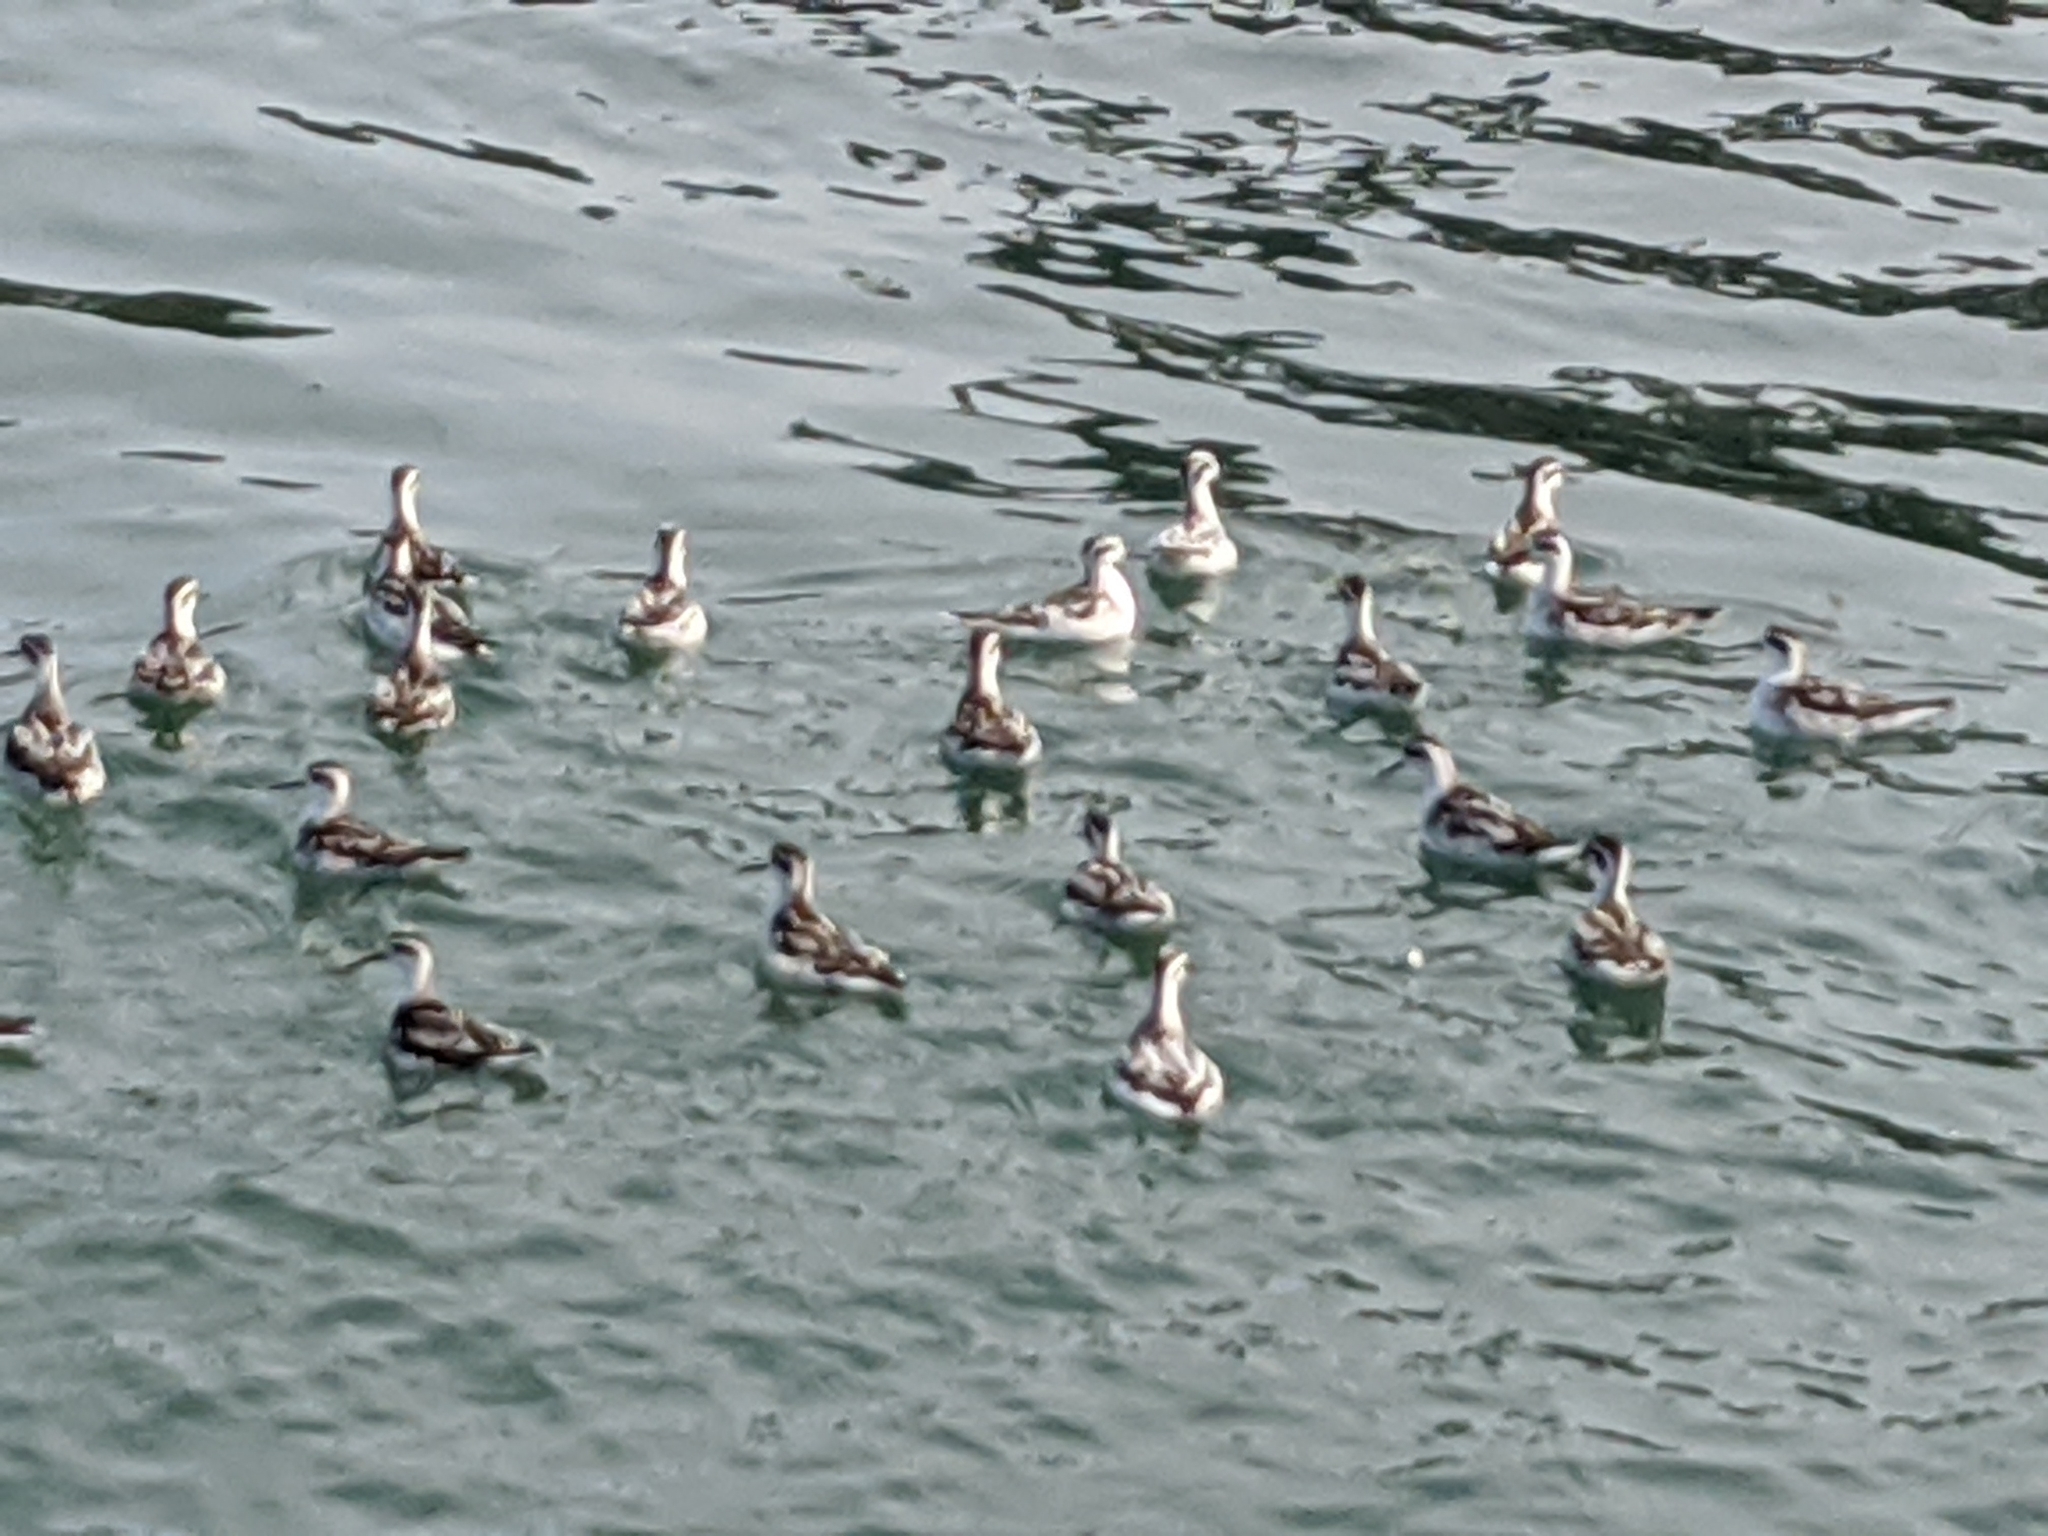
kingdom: Animalia
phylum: Chordata
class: Aves
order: Charadriiformes
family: Scolopacidae
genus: Phalaropus
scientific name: Phalaropus lobatus
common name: Red-necked phalarope
